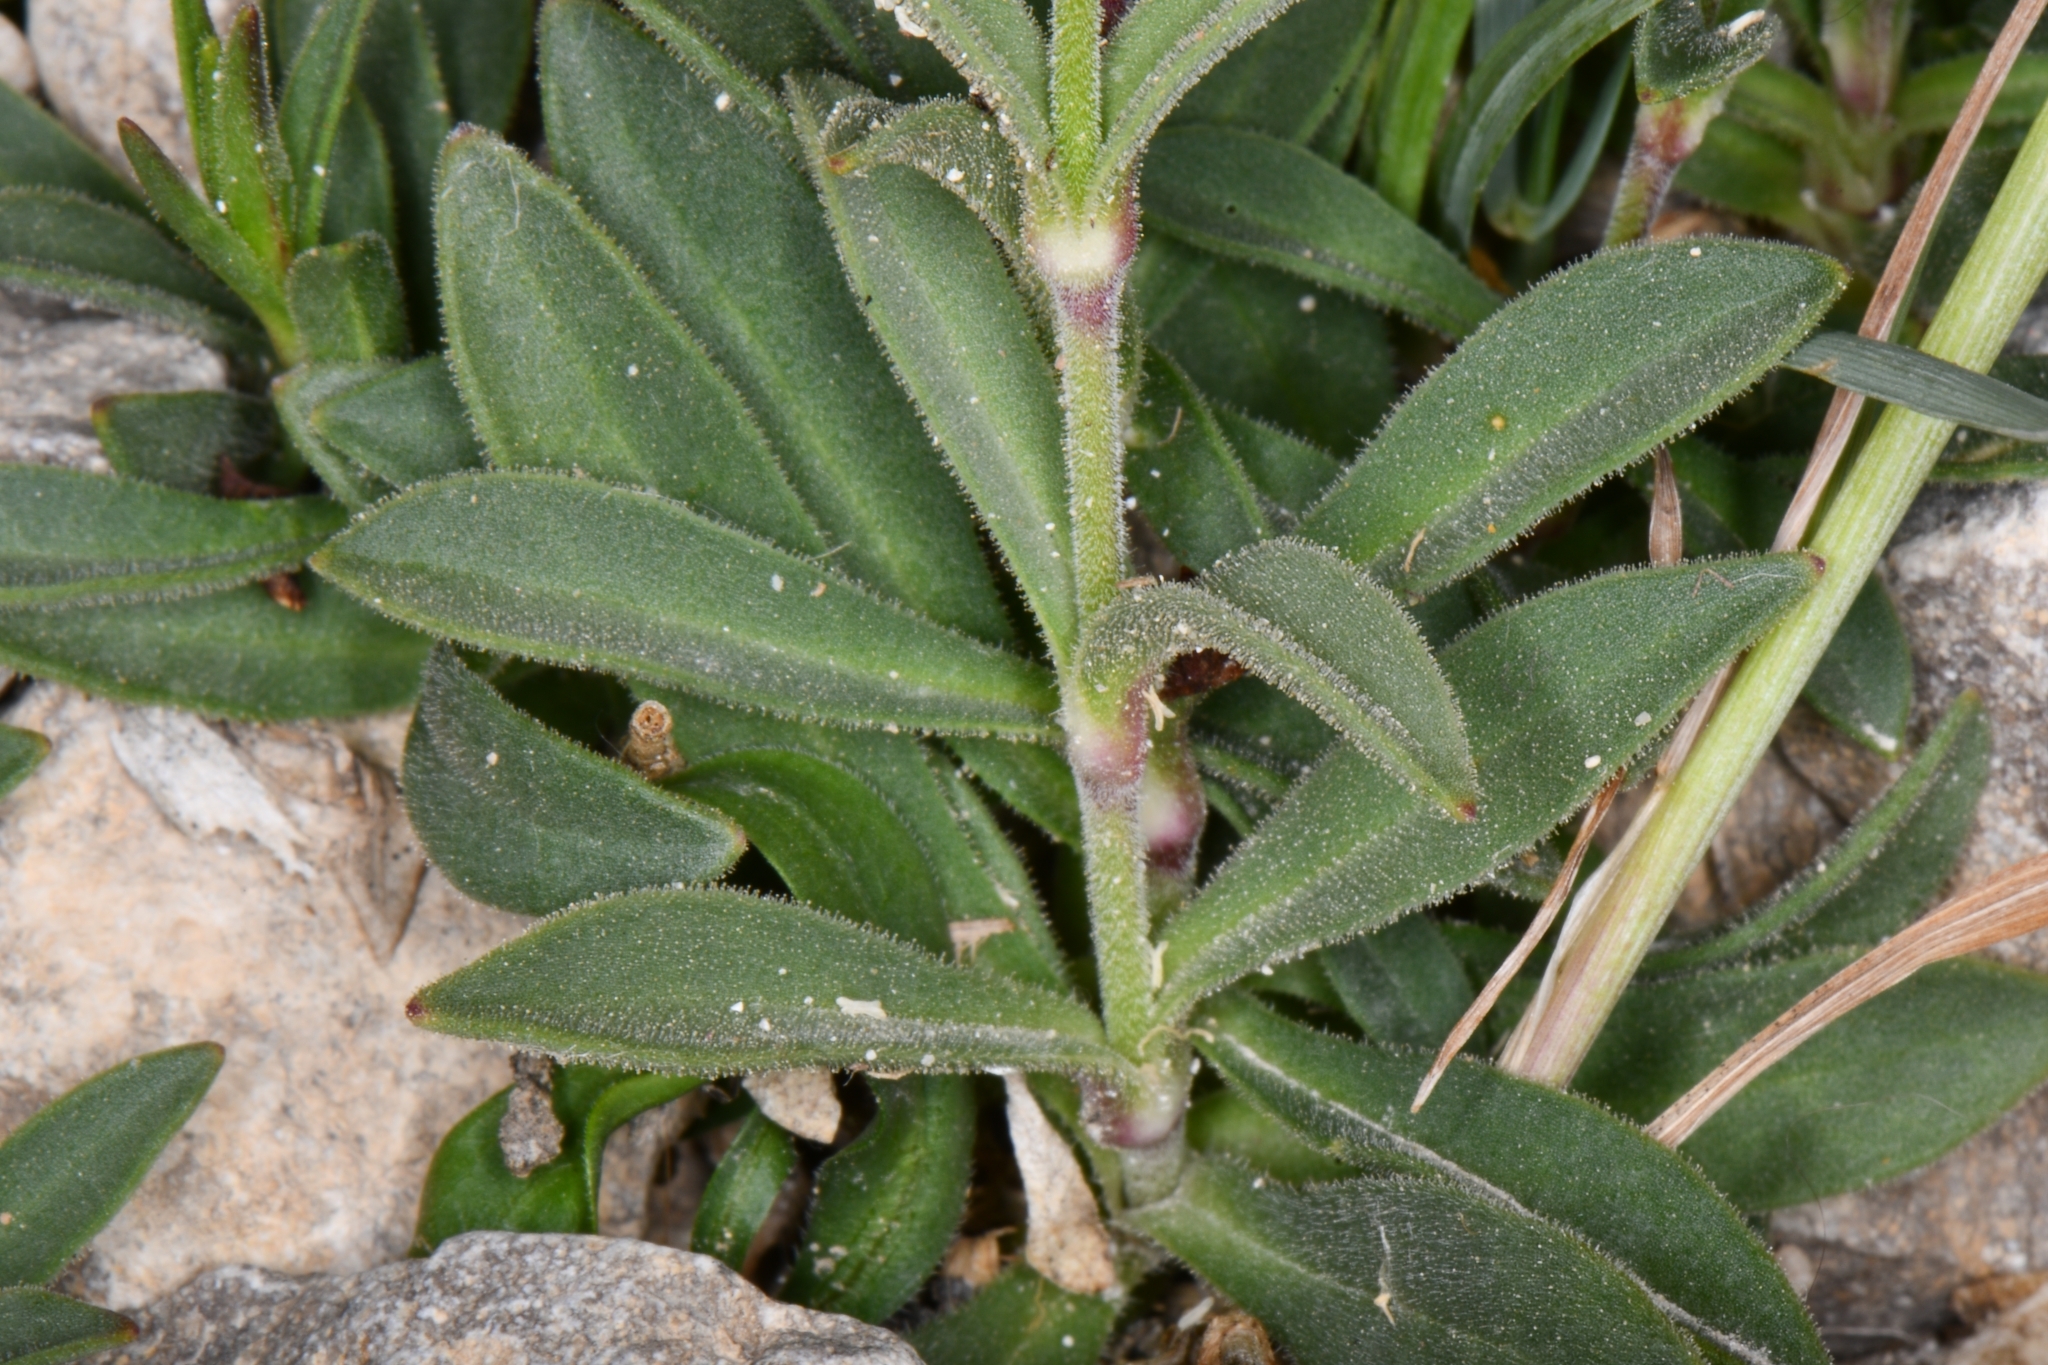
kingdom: Plantae
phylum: Tracheophyta
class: Magnoliopsida
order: Caryophyllales
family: Caryophyllaceae
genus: Silene
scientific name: Silene petersonii
